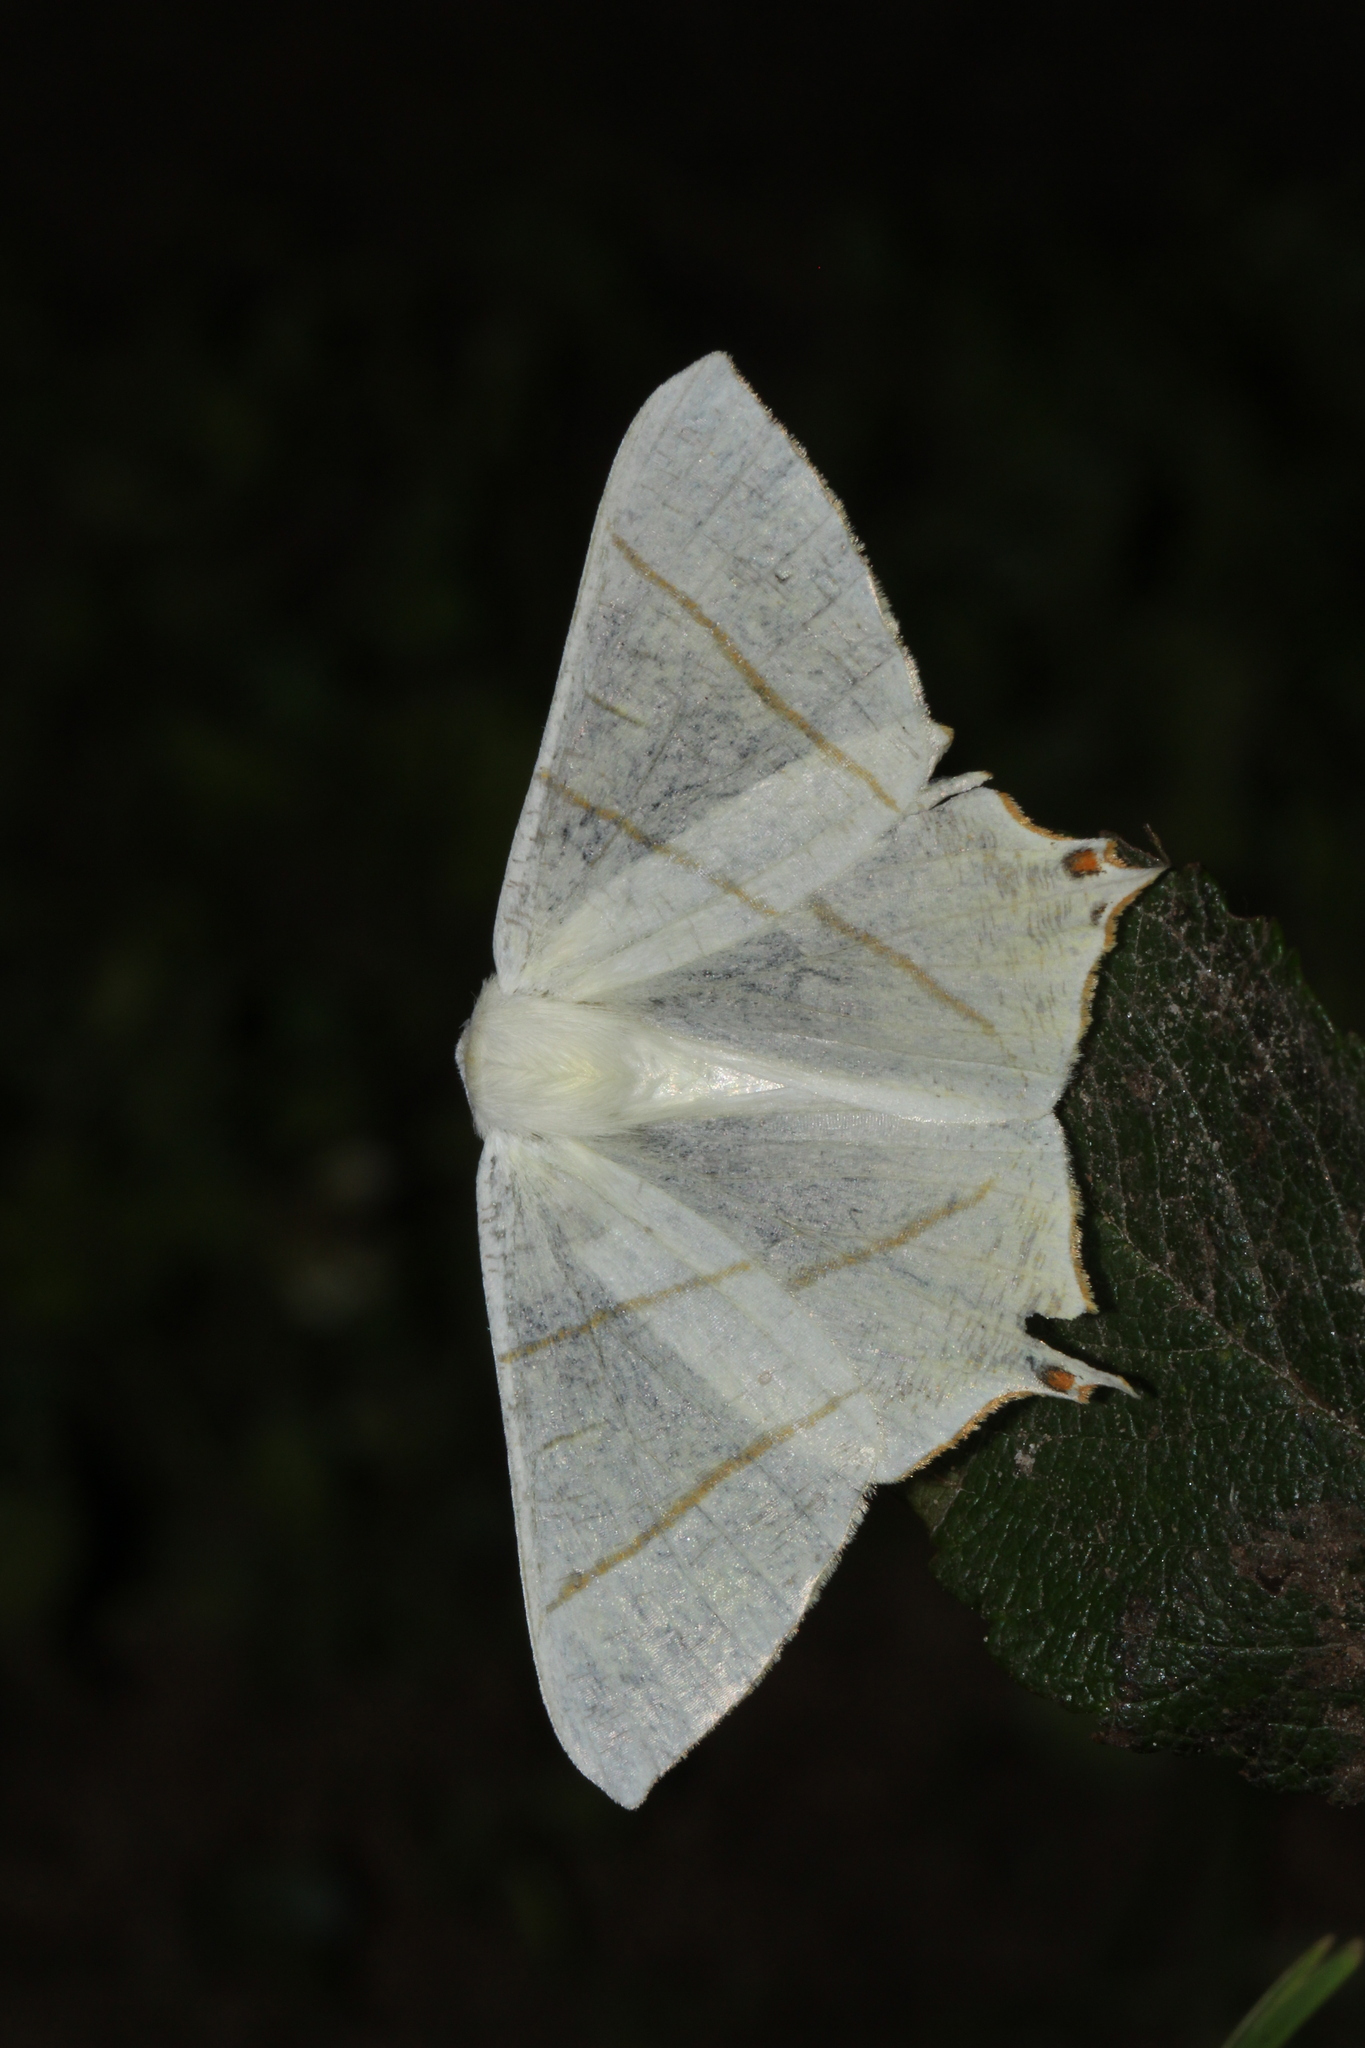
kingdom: Animalia
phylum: Arthropoda
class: Insecta
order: Lepidoptera
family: Geometridae
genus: Ourapteryx
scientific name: Ourapteryx sambucaria
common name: Swallow-tailed moth
